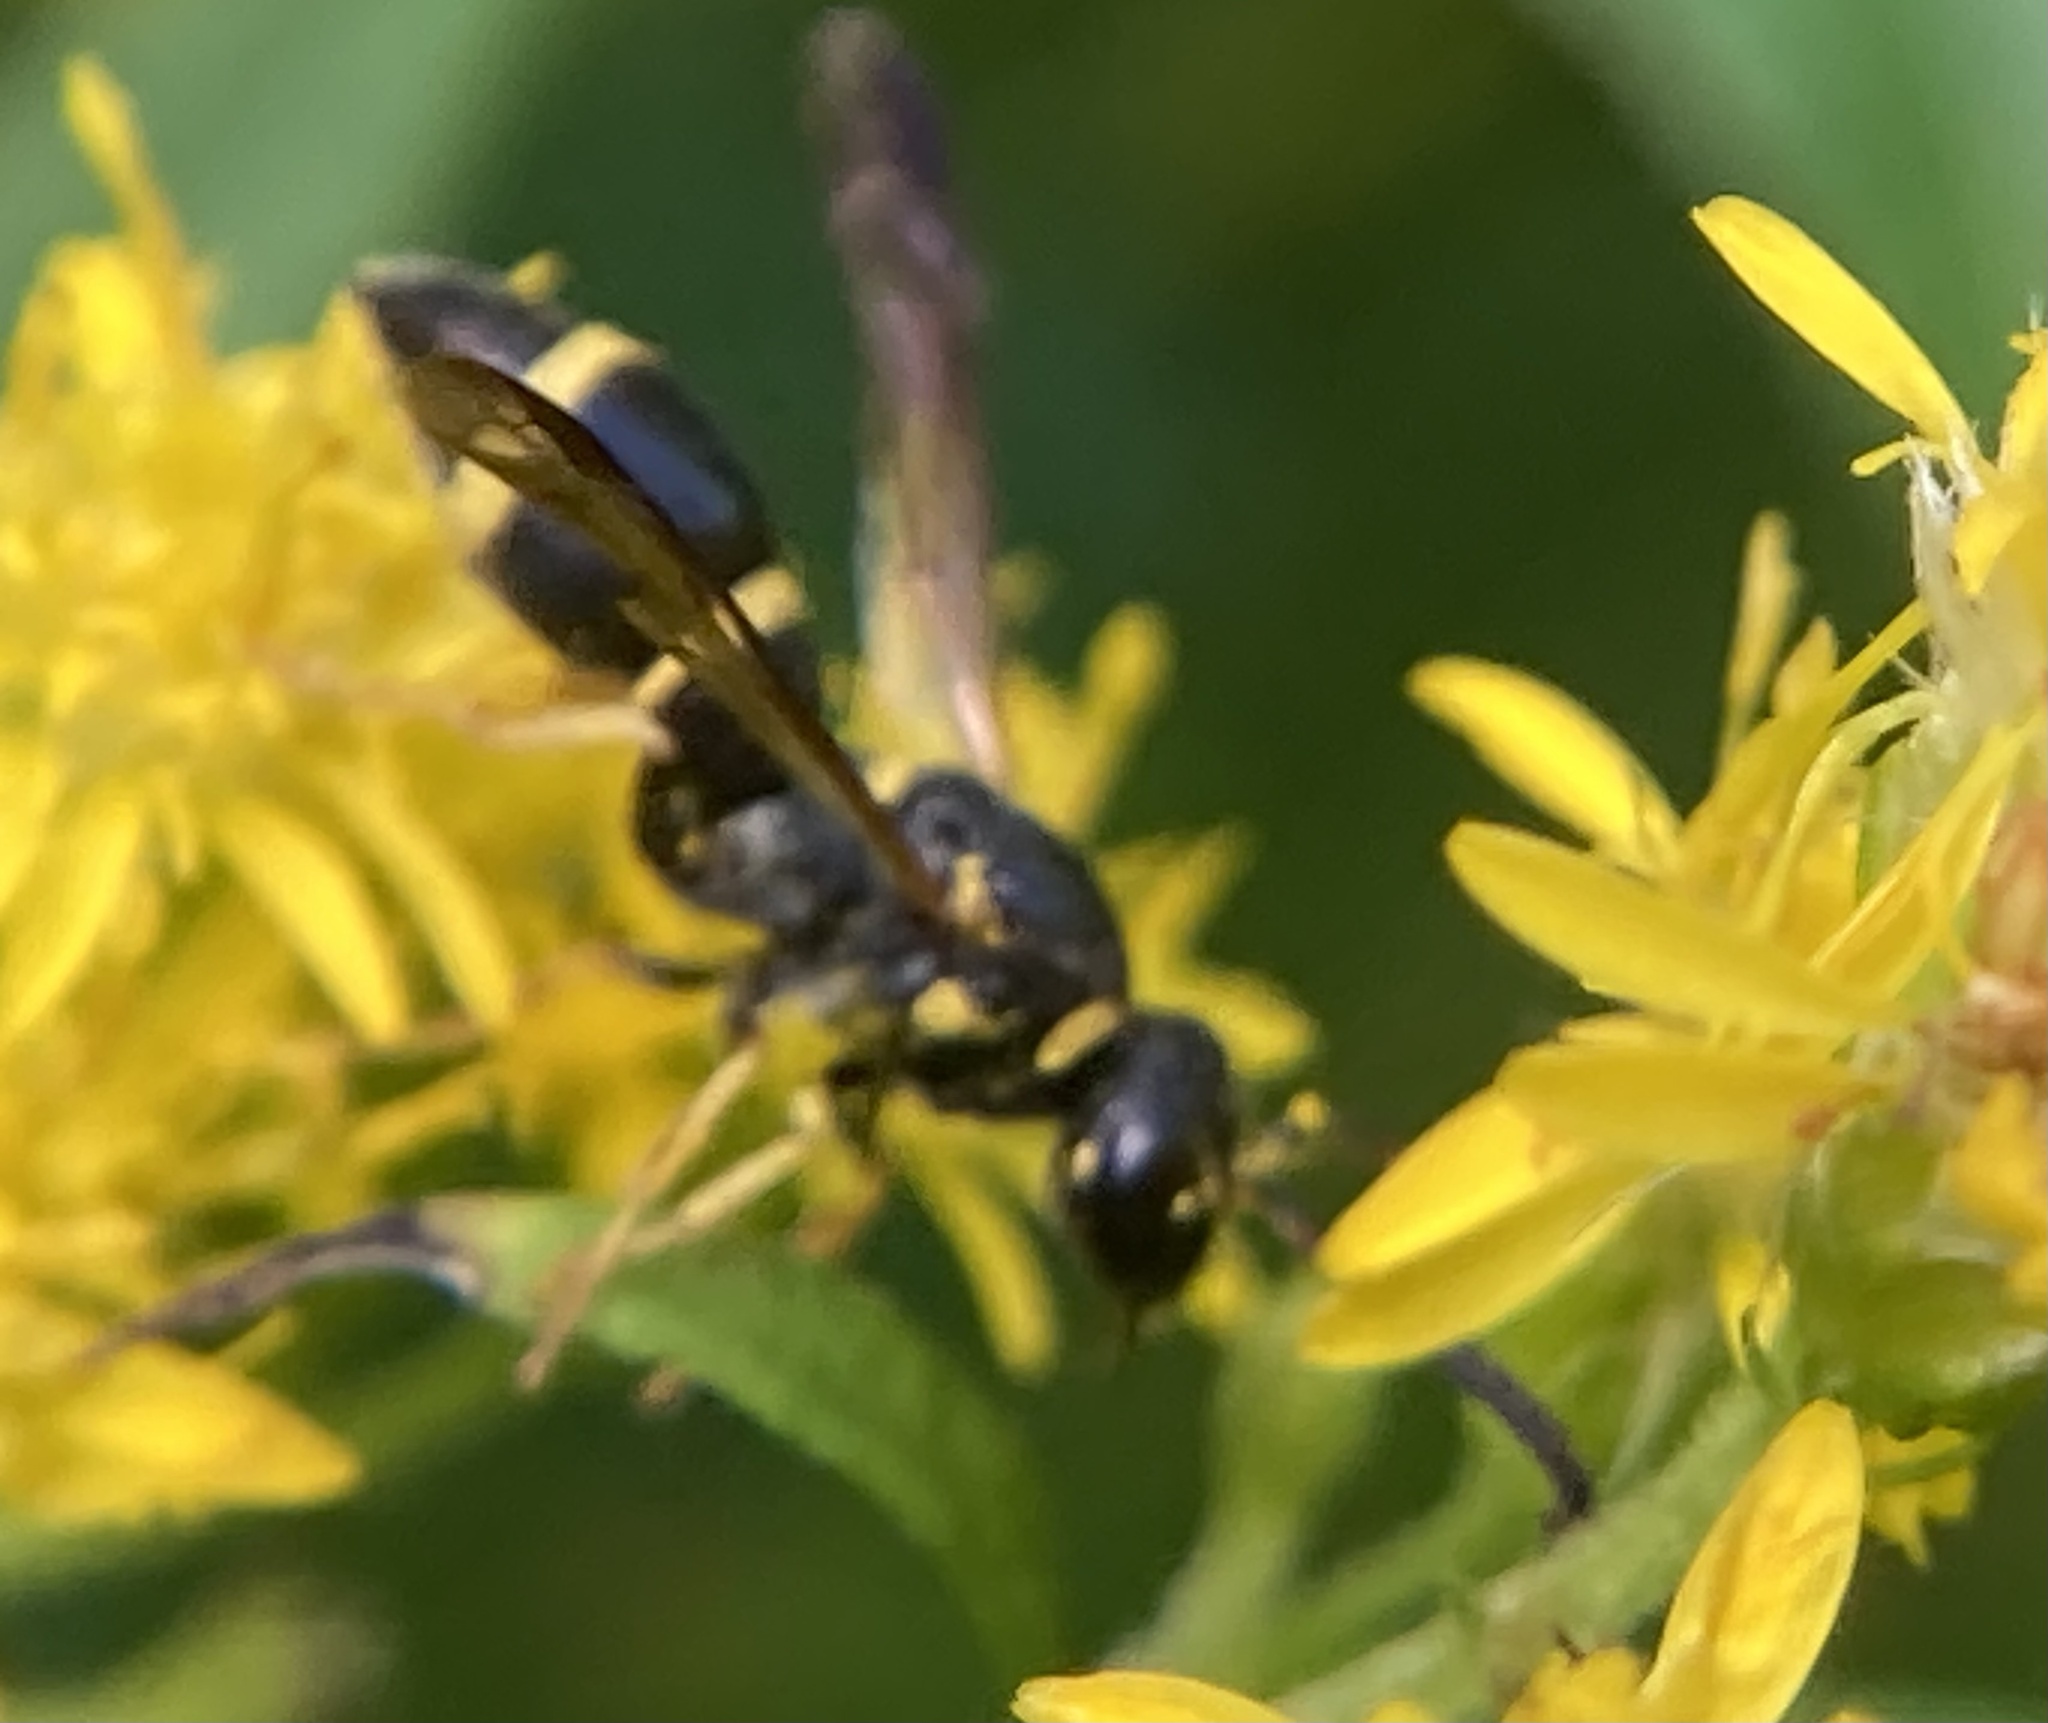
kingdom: Animalia
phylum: Arthropoda
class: Insecta
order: Hymenoptera
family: Eumenidae
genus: Parancistrocerus
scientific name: Parancistrocerus perennis
